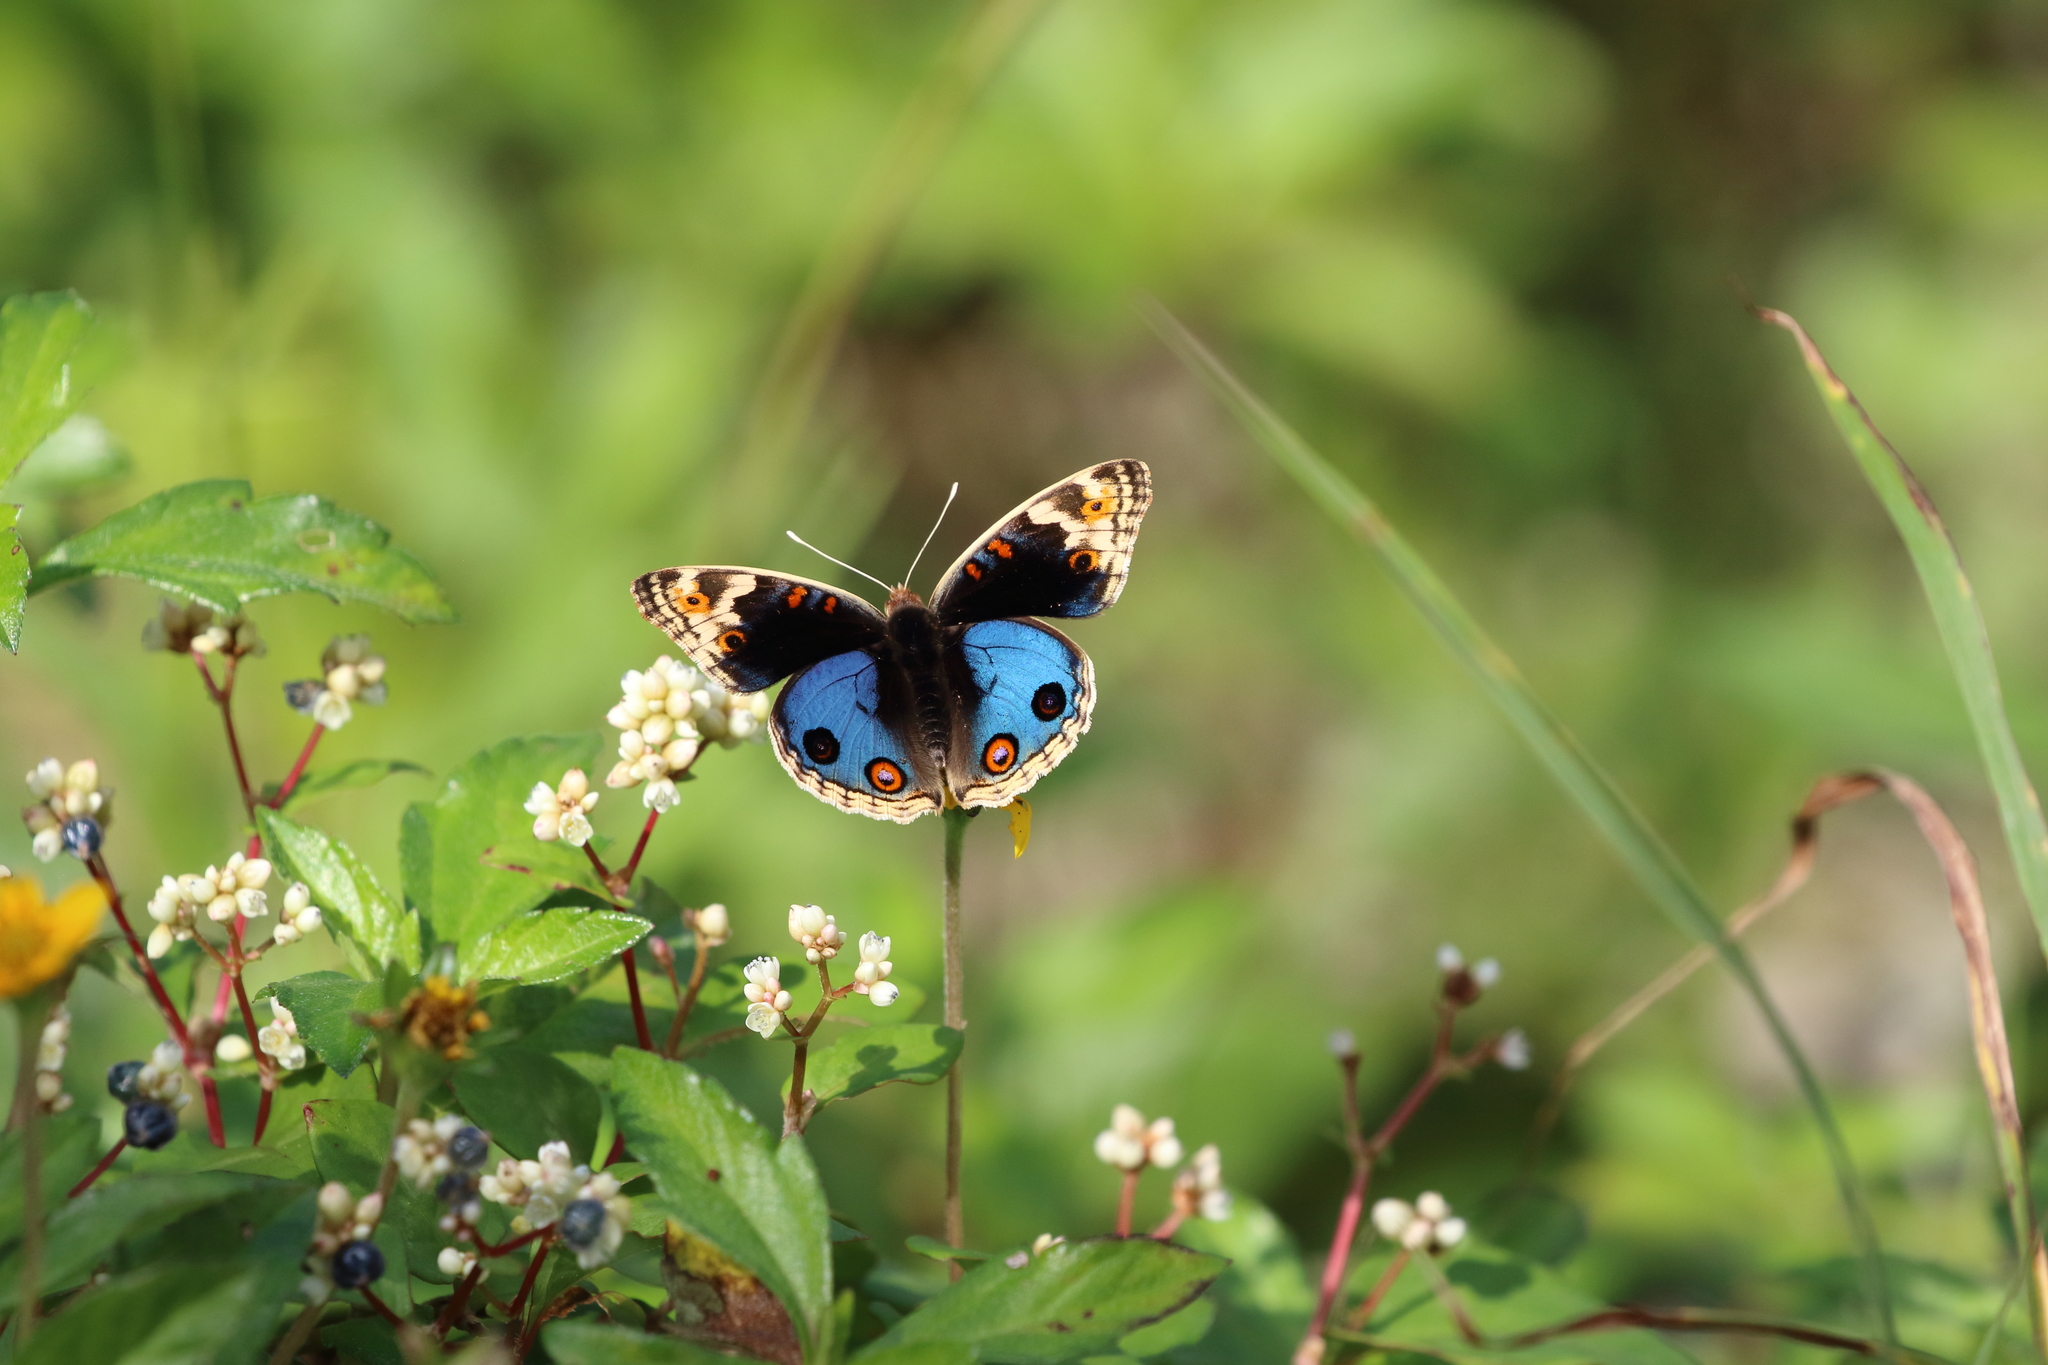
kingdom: Animalia
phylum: Arthropoda
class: Insecta
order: Lepidoptera
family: Nymphalidae
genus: Junonia
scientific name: Junonia orithya
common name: Blue pansy
